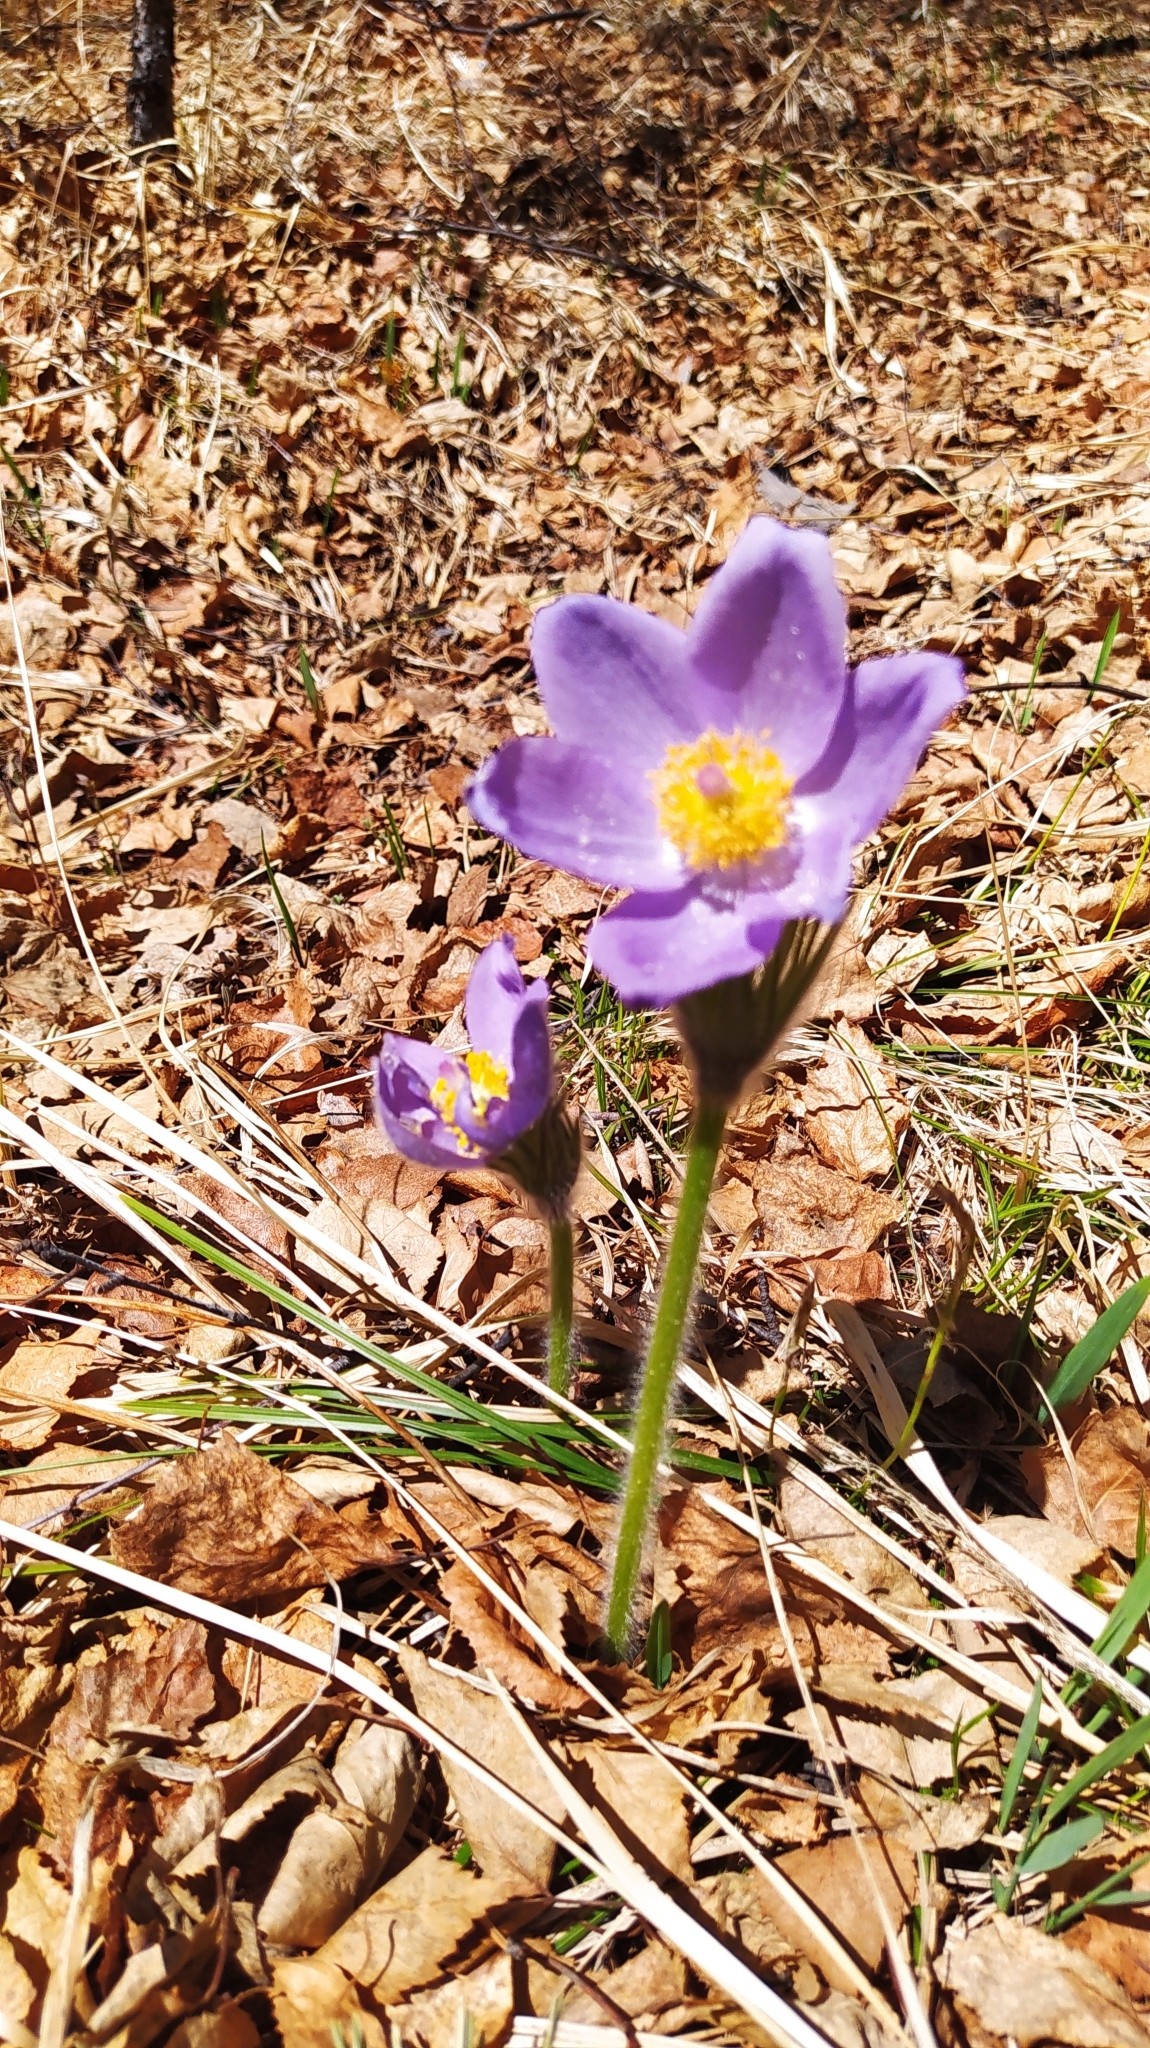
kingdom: Plantae
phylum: Tracheophyta
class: Magnoliopsida
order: Ranunculales
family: Ranunculaceae
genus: Pulsatilla
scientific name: Pulsatilla patens
